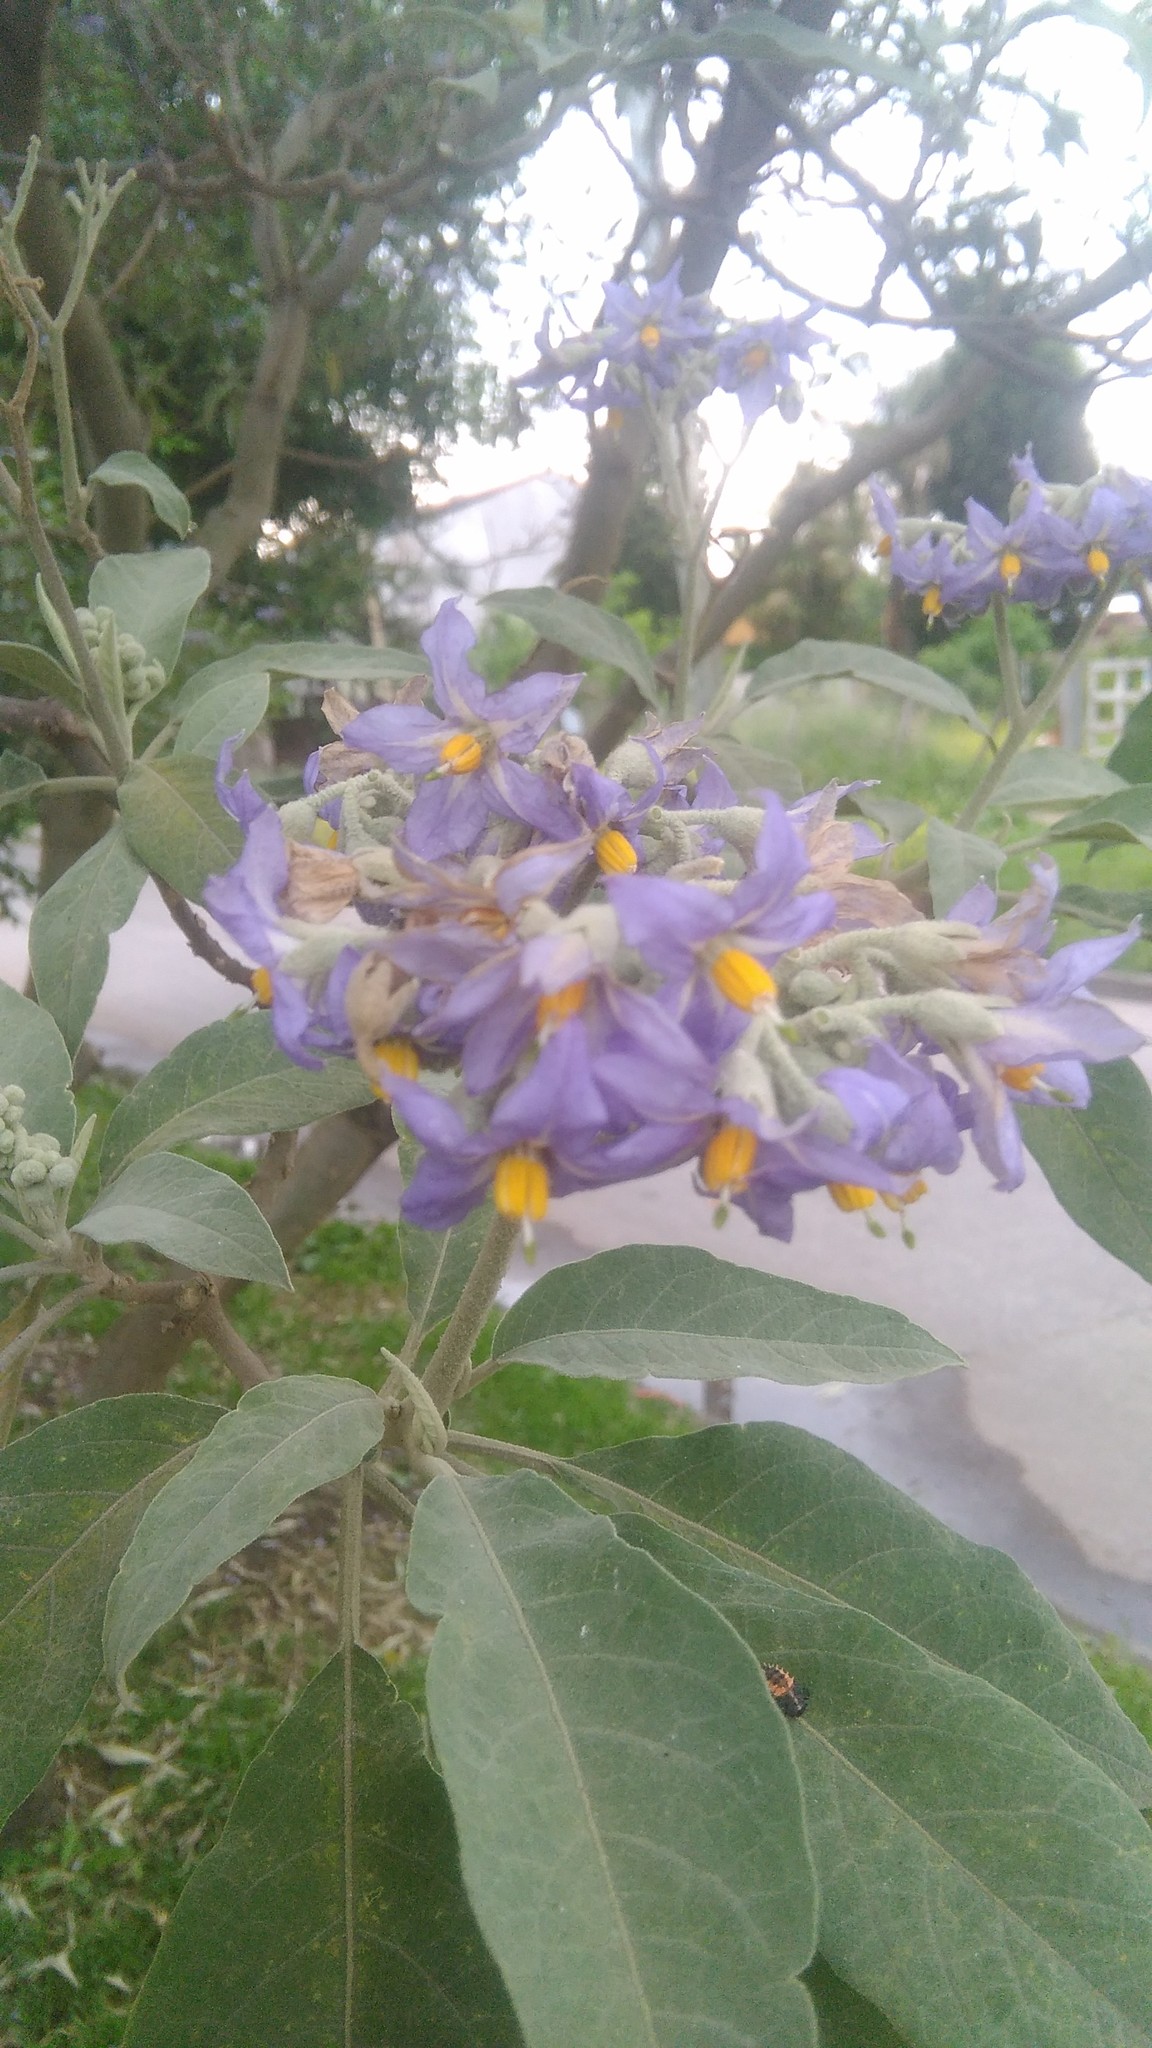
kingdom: Plantae
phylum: Tracheophyta
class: Magnoliopsida
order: Solanales
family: Solanaceae
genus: Solanum
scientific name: Solanum granulosoleprosum
